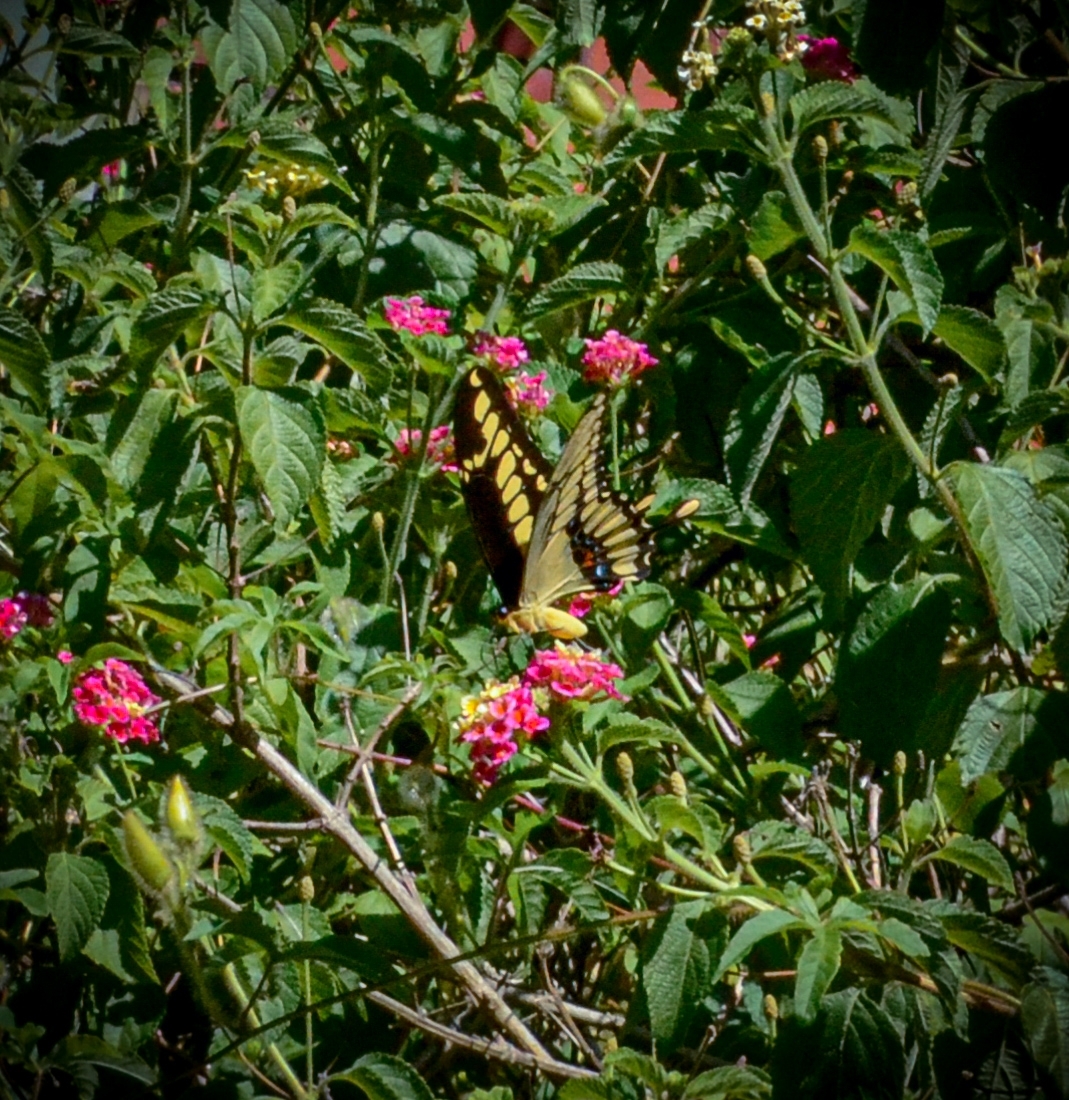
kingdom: Animalia
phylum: Arthropoda
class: Insecta
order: Lepidoptera
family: Papilionidae
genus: Papilio
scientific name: Papilio thoas
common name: King swallowtail
